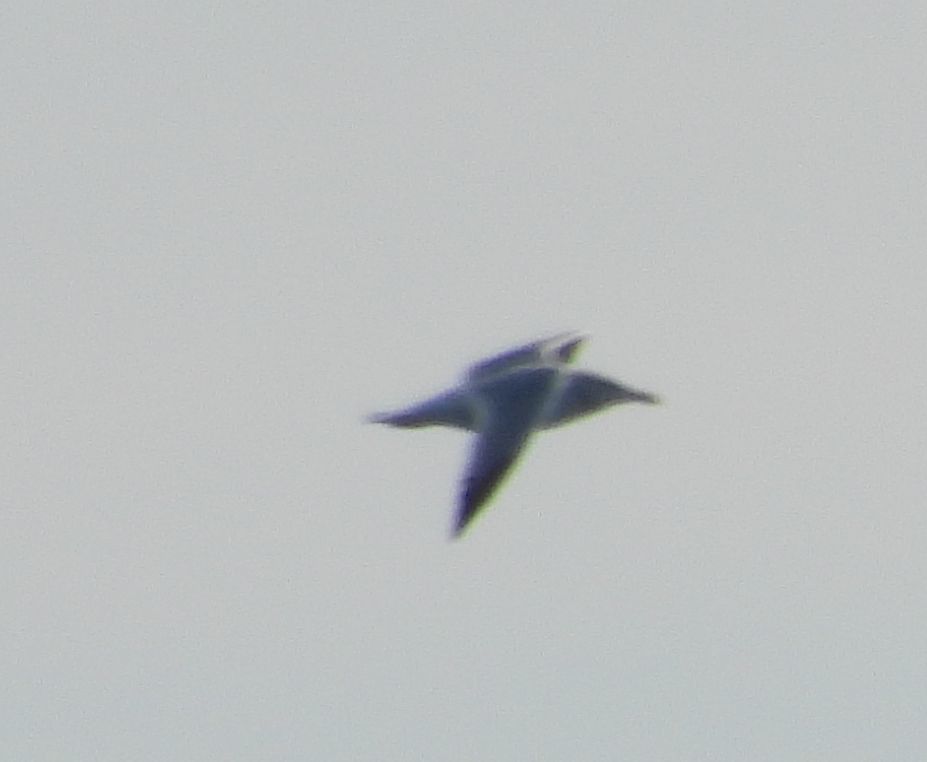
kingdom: Animalia
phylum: Chordata
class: Aves
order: Charadriiformes
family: Laridae
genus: Larus
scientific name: Larus argentatus
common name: Herring gull
